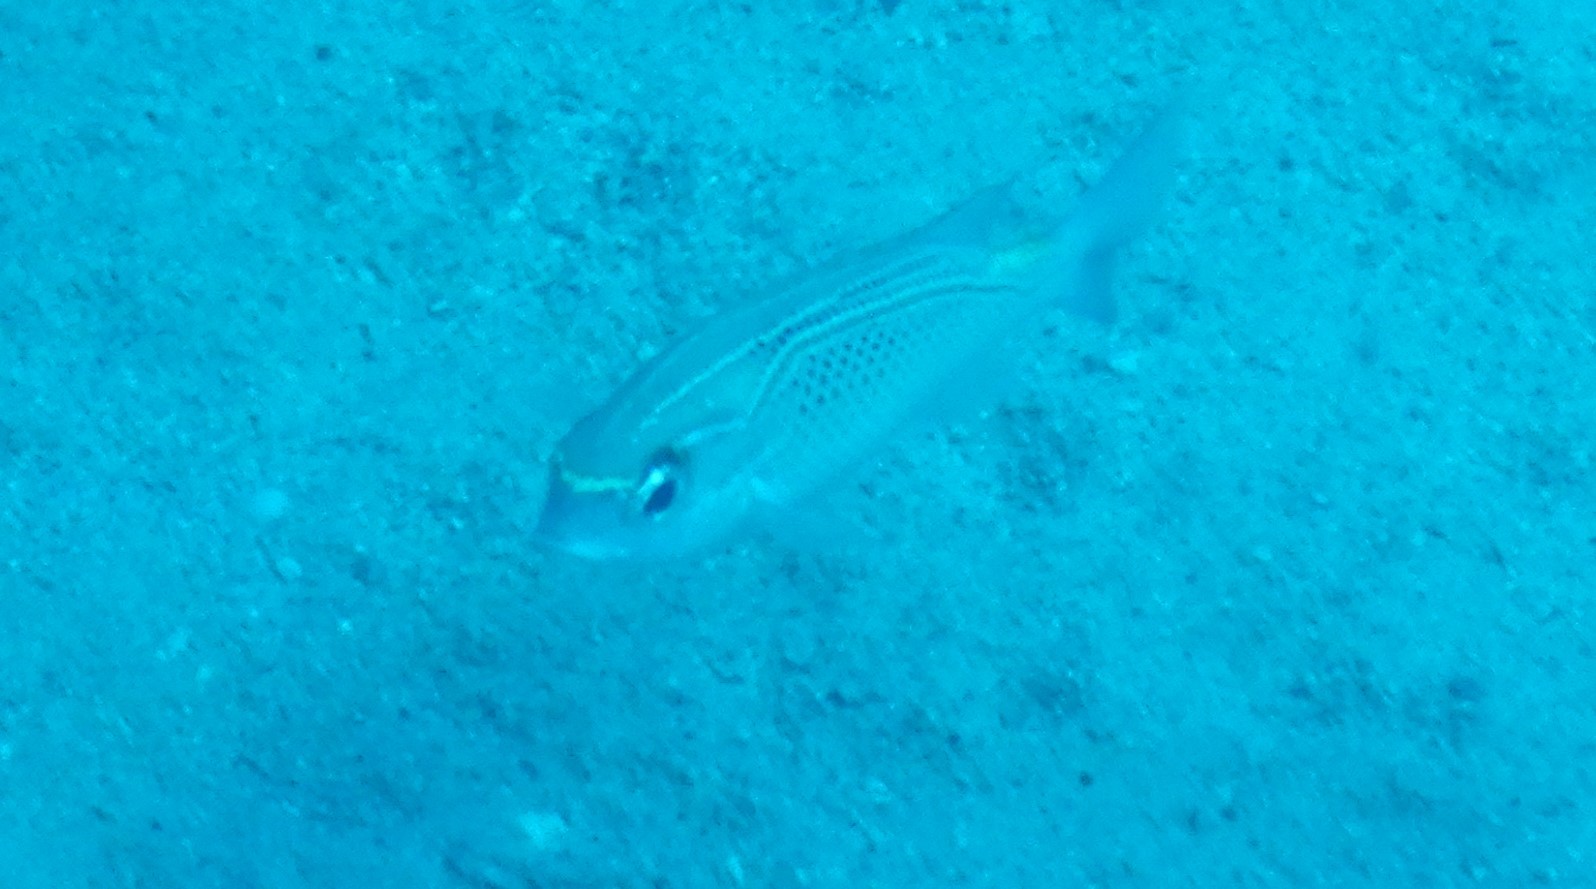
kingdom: Animalia
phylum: Chordata
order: Perciformes
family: Nemipteridae
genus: Scolopsis
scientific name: Scolopsis ghanam
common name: Arabian monocle bream
